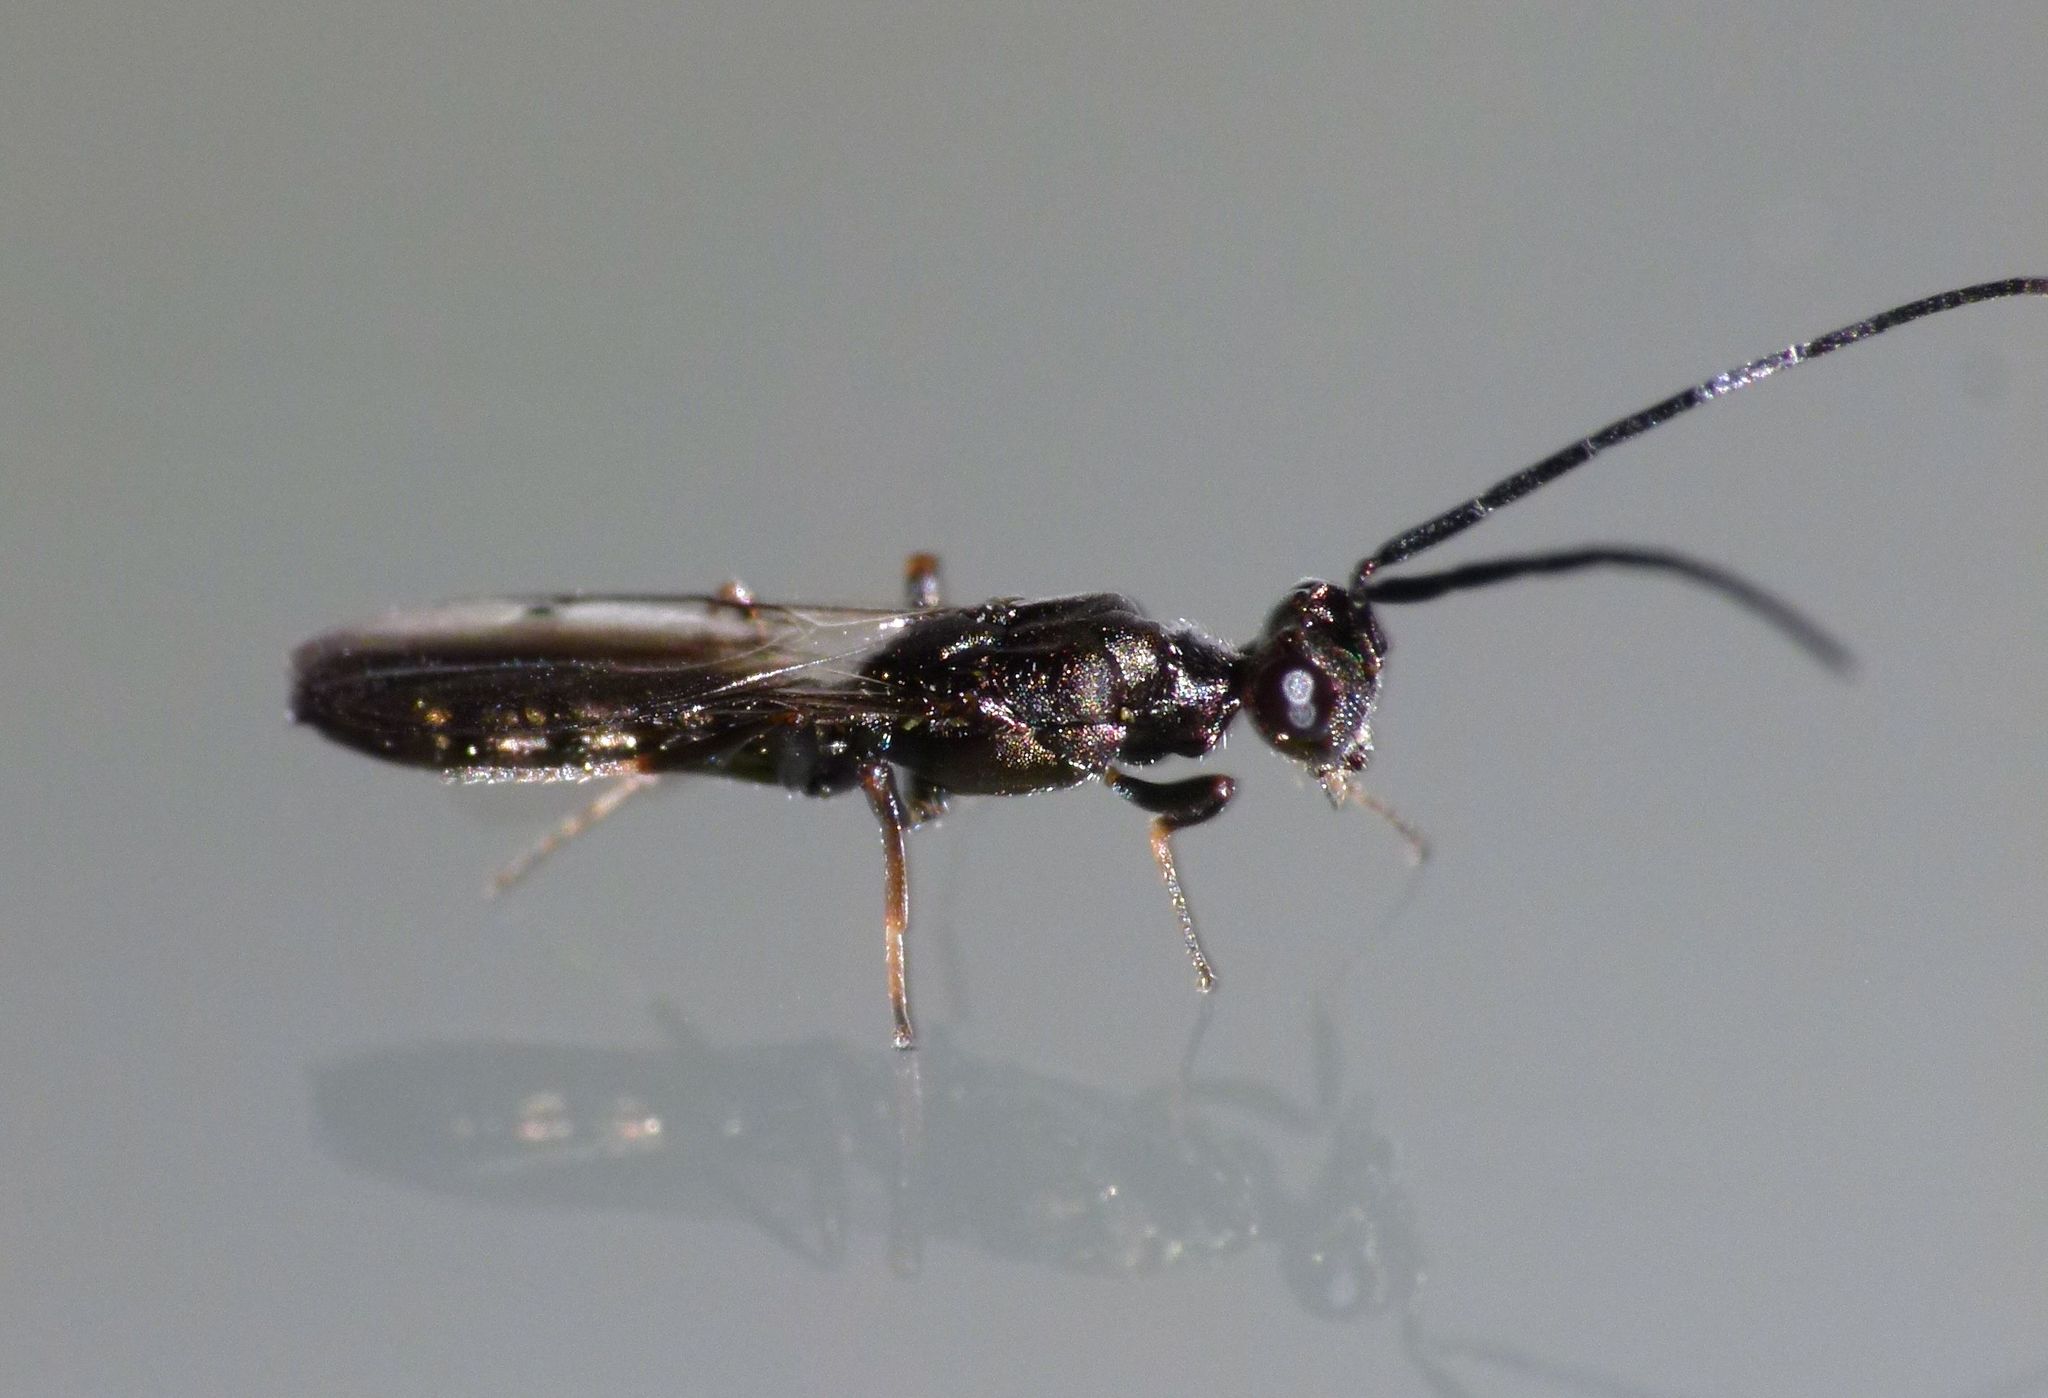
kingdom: Animalia
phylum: Arthropoda
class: Insecta
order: Hymenoptera
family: Eupelmidae
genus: Eusandalum
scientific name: Eusandalum barteli
